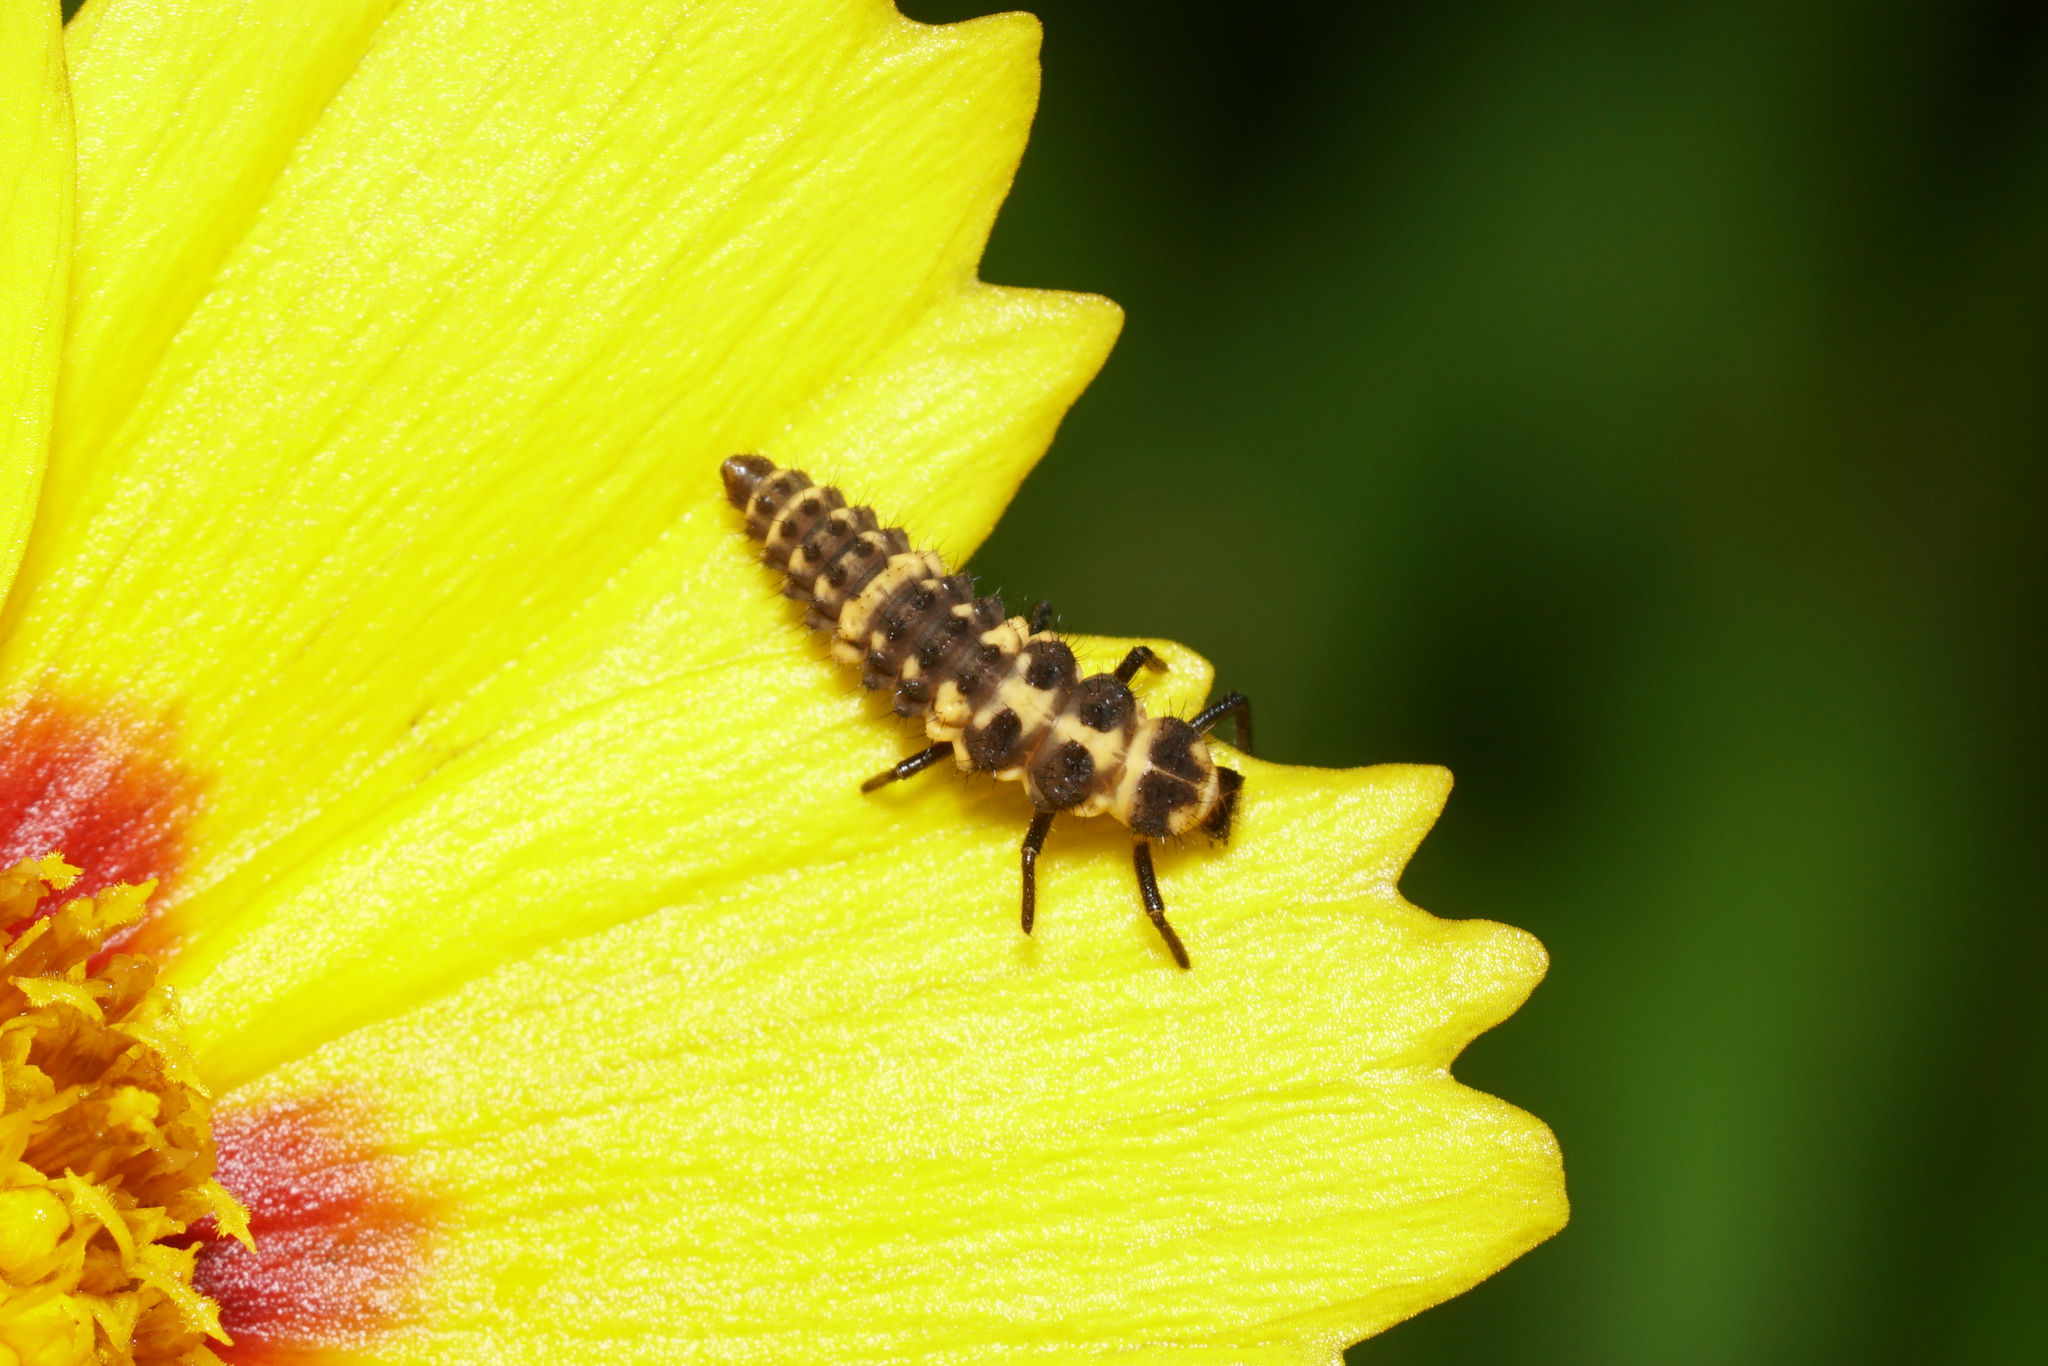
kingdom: Animalia
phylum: Arthropoda
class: Insecta
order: Coleoptera
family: Coccinellidae
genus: Coleomegilla
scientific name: Coleomegilla maculata
